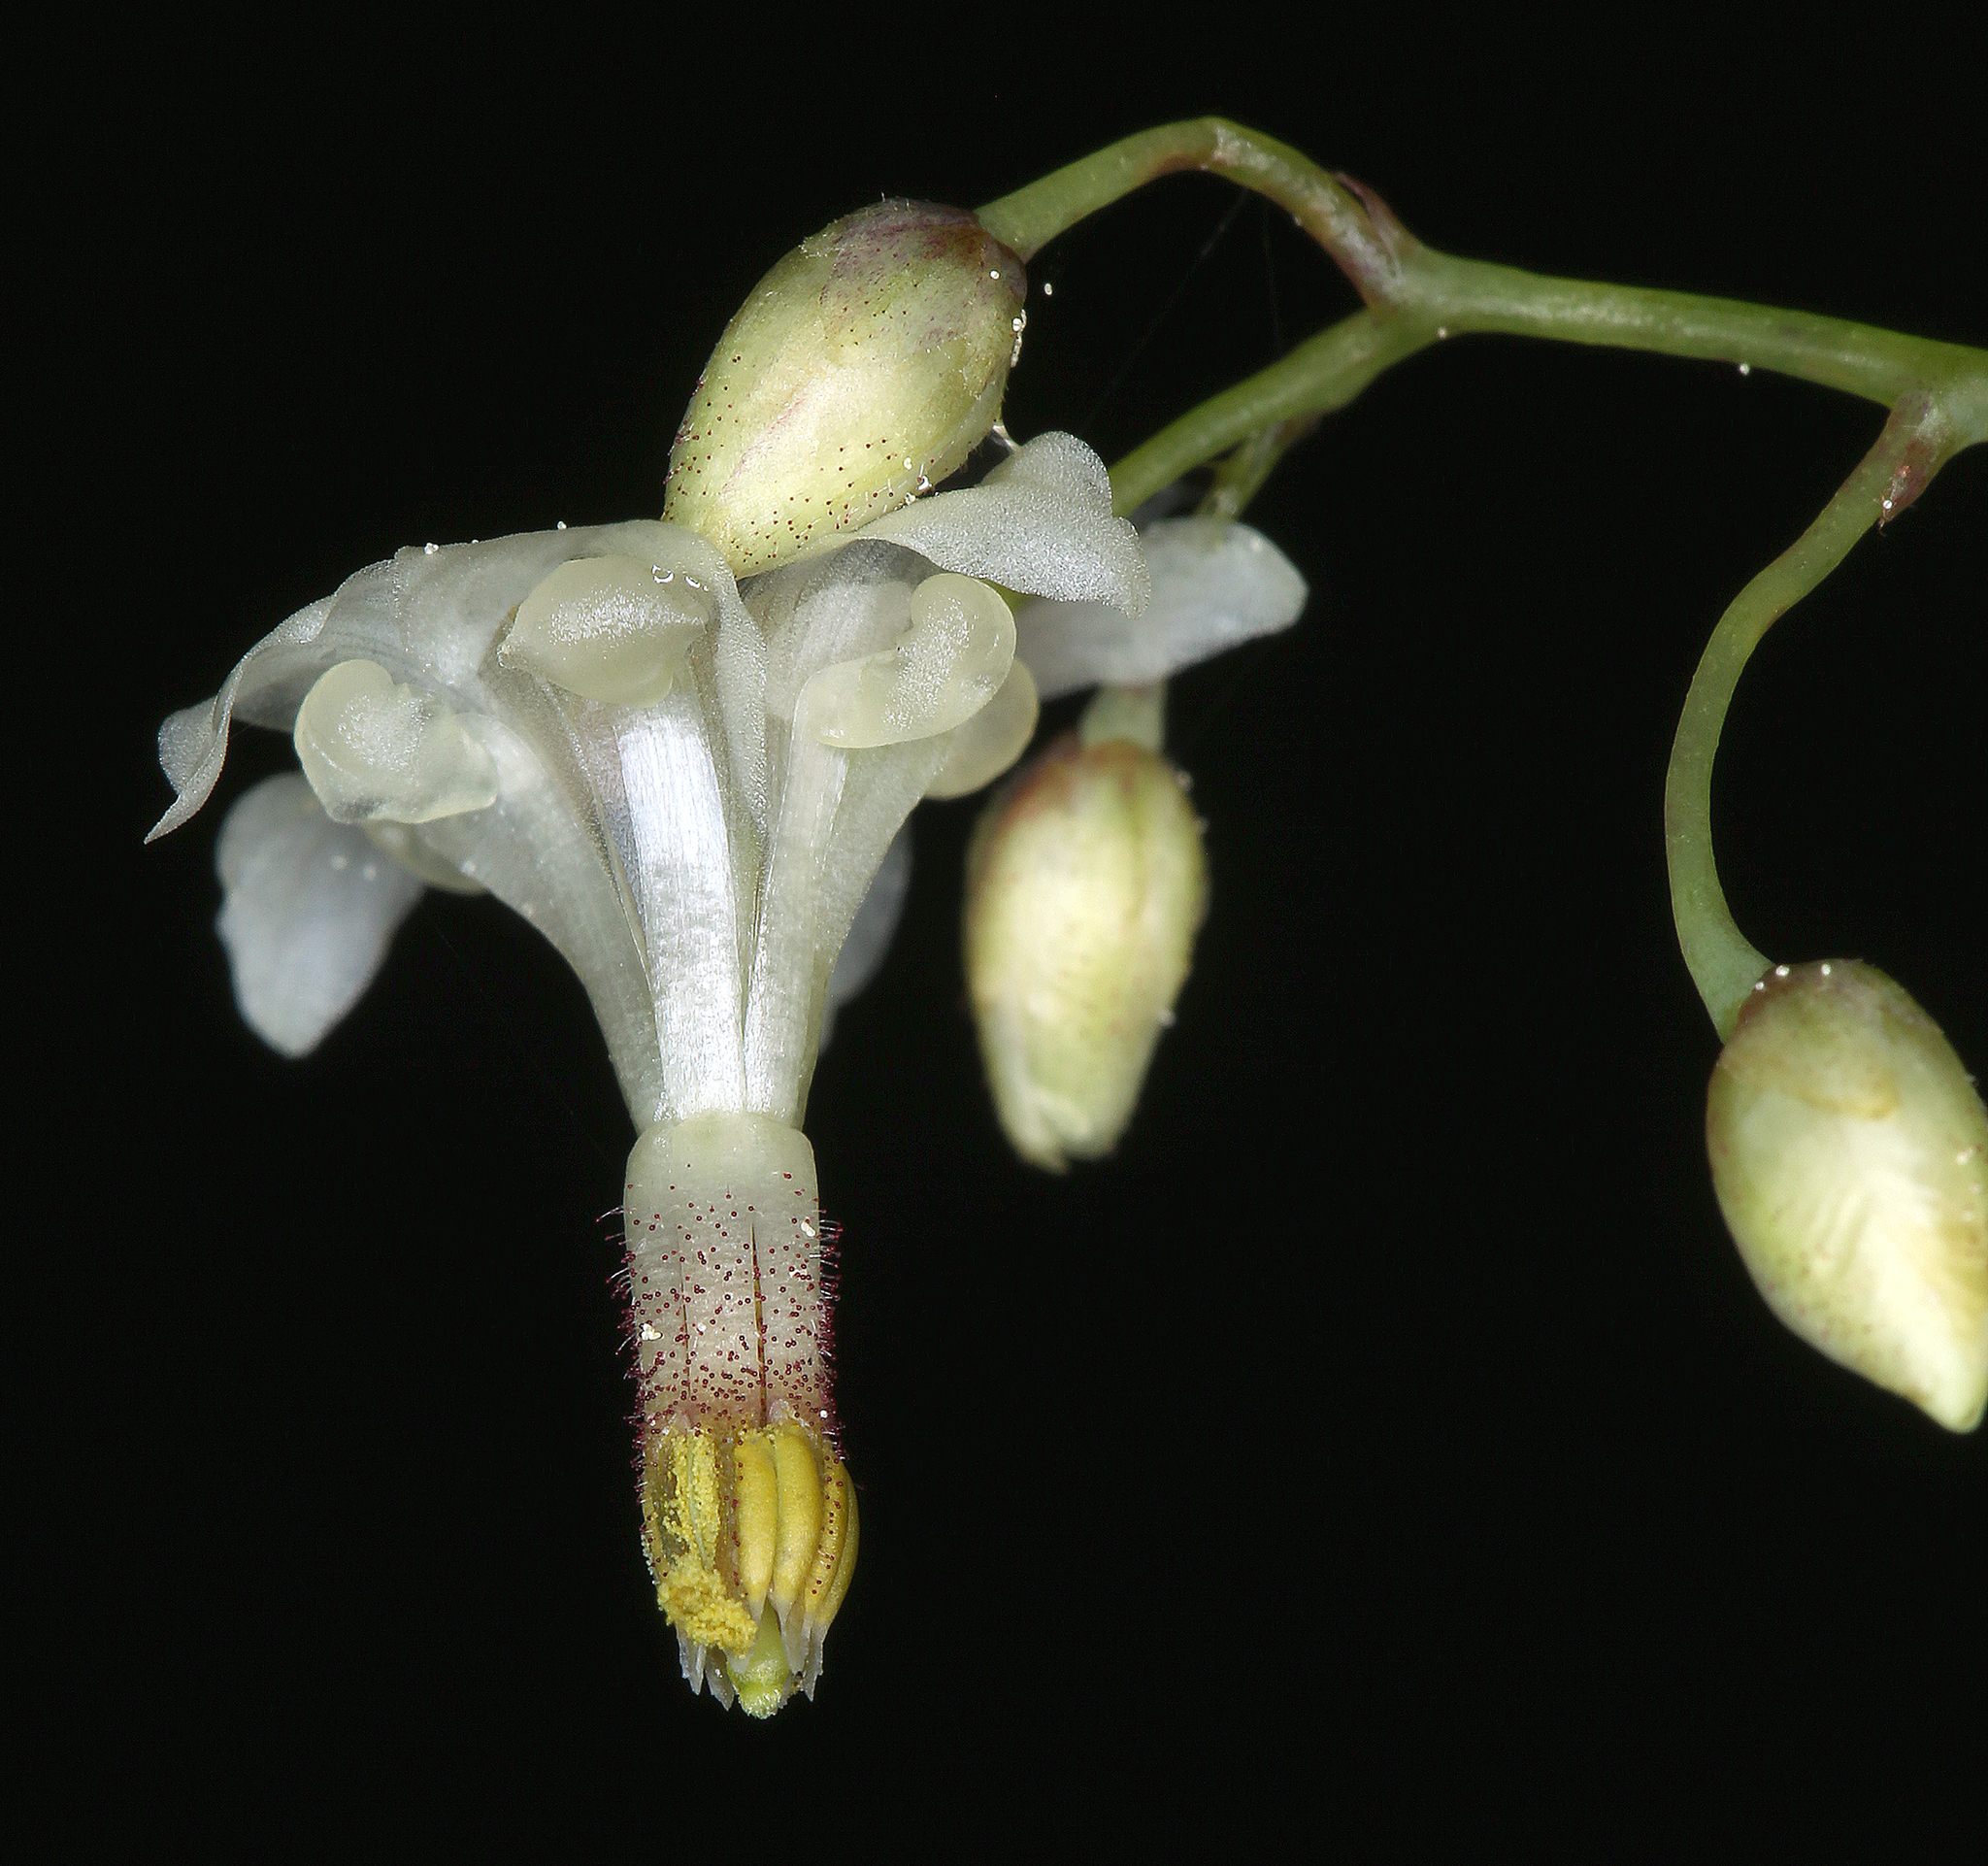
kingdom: Plantae
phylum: Tracheophyta
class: Magnoliopsida
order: Ranunculales
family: Berberidaceae
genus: Vancouveria
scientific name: Vancouveria hexandra
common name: Northern inside-out-flower
